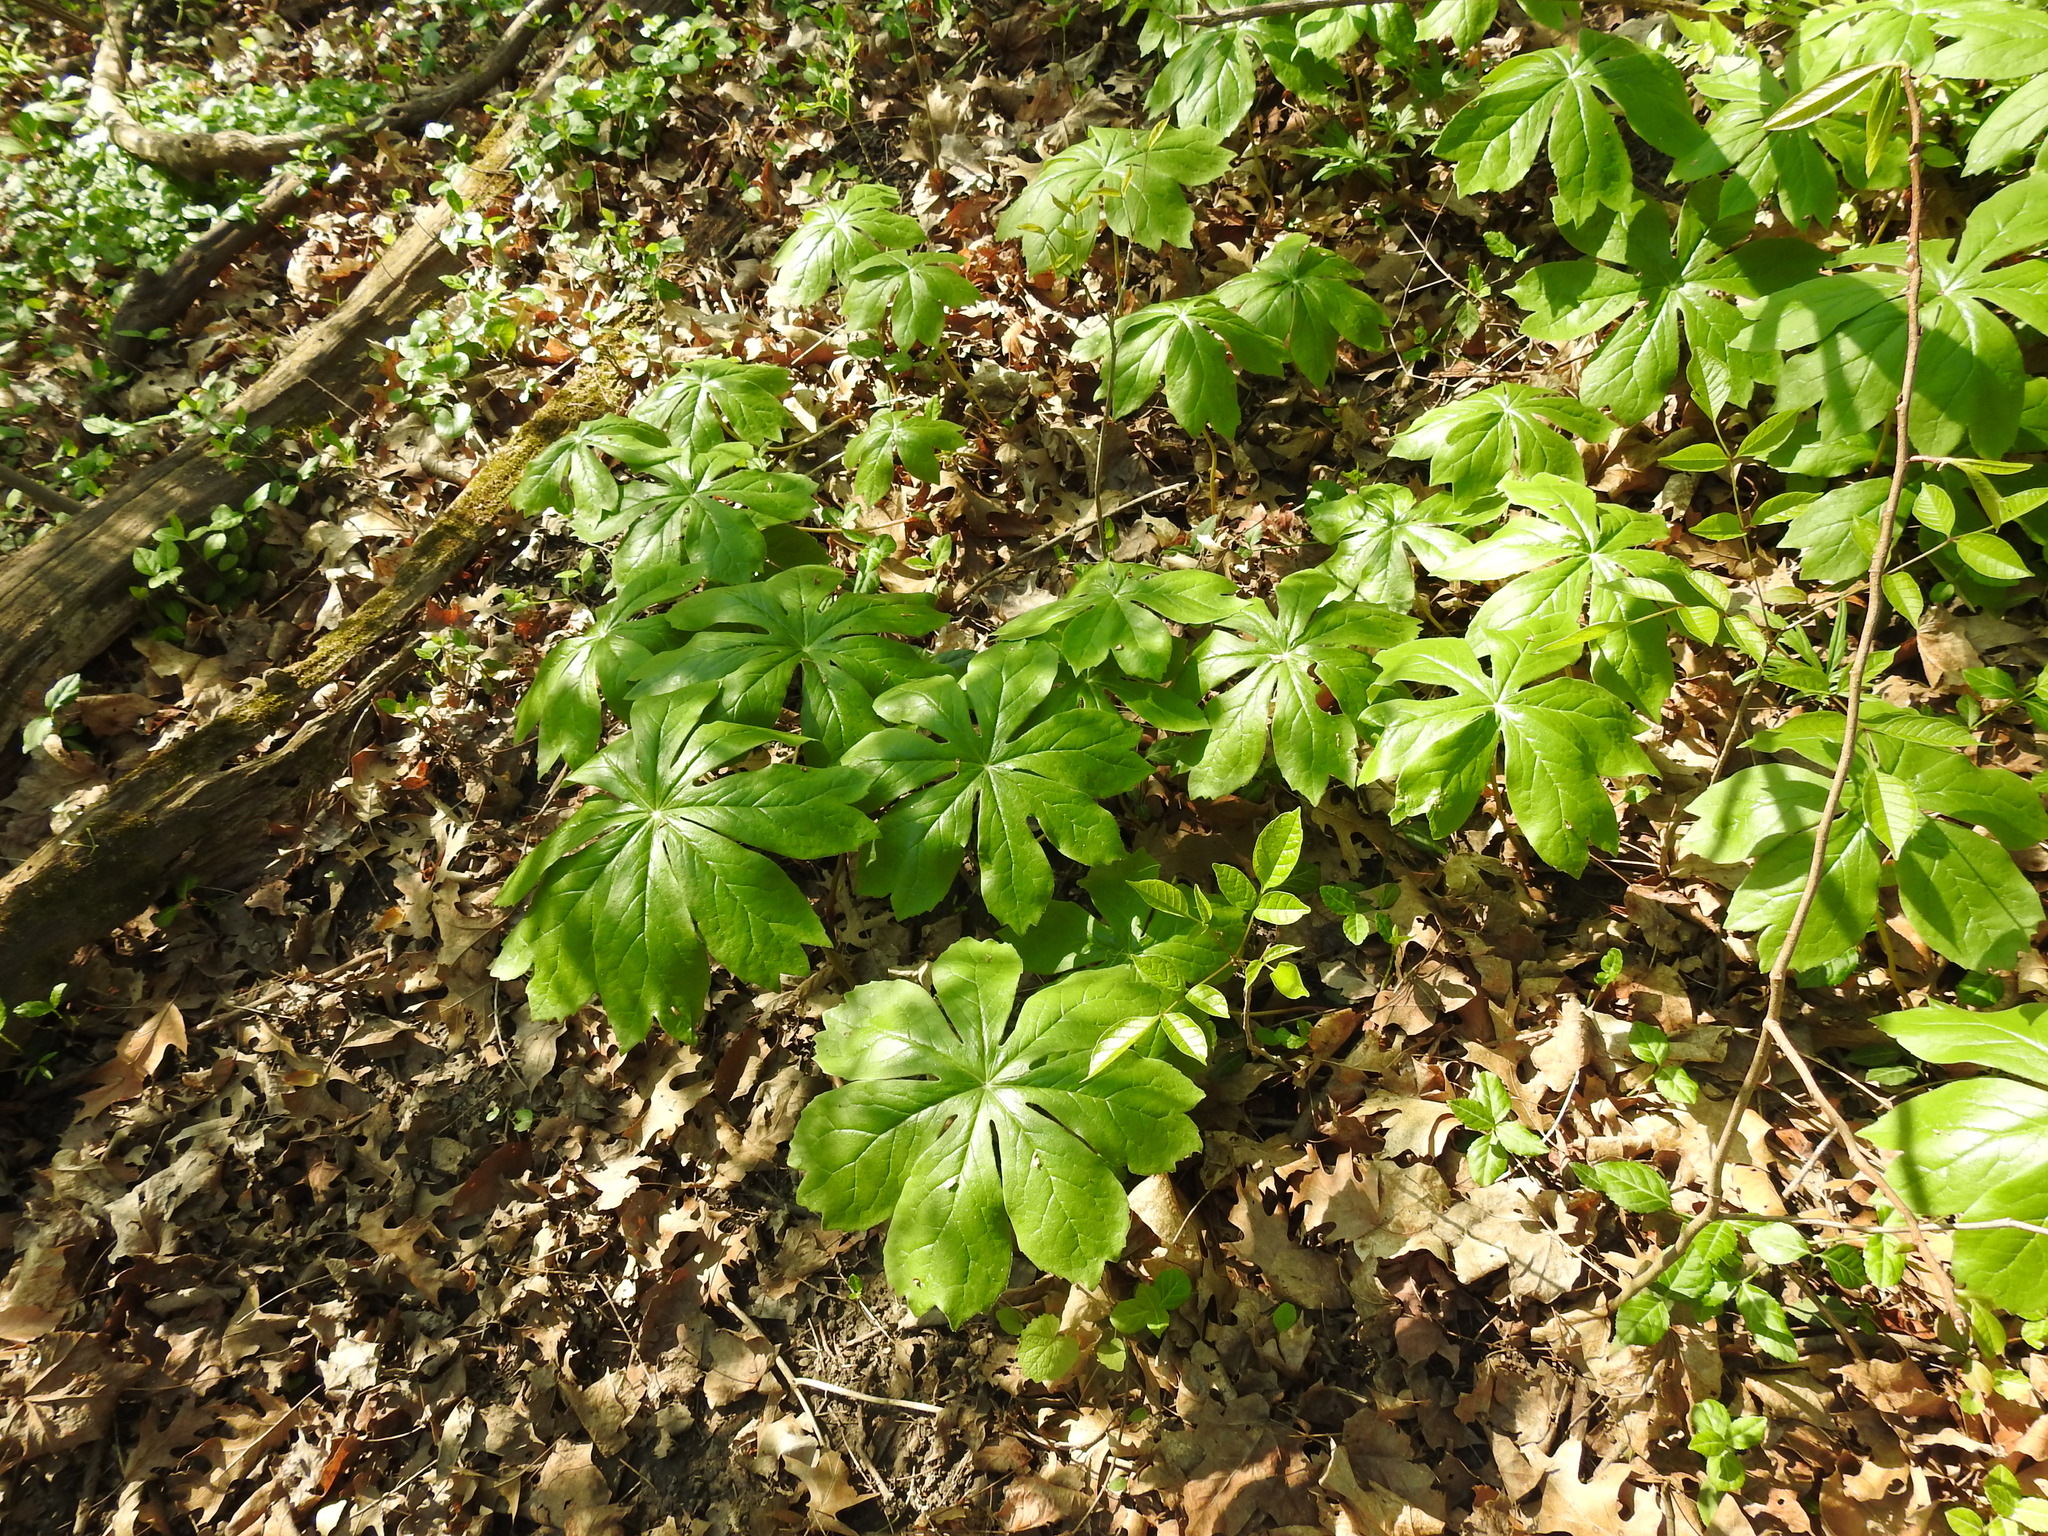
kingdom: Plantae
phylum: Tracheophyta
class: Magnoliopsida
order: Ranunculales
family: Berberidaceae
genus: Podophyllum
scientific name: Podophyllum peltatum
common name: Wild mandrake
